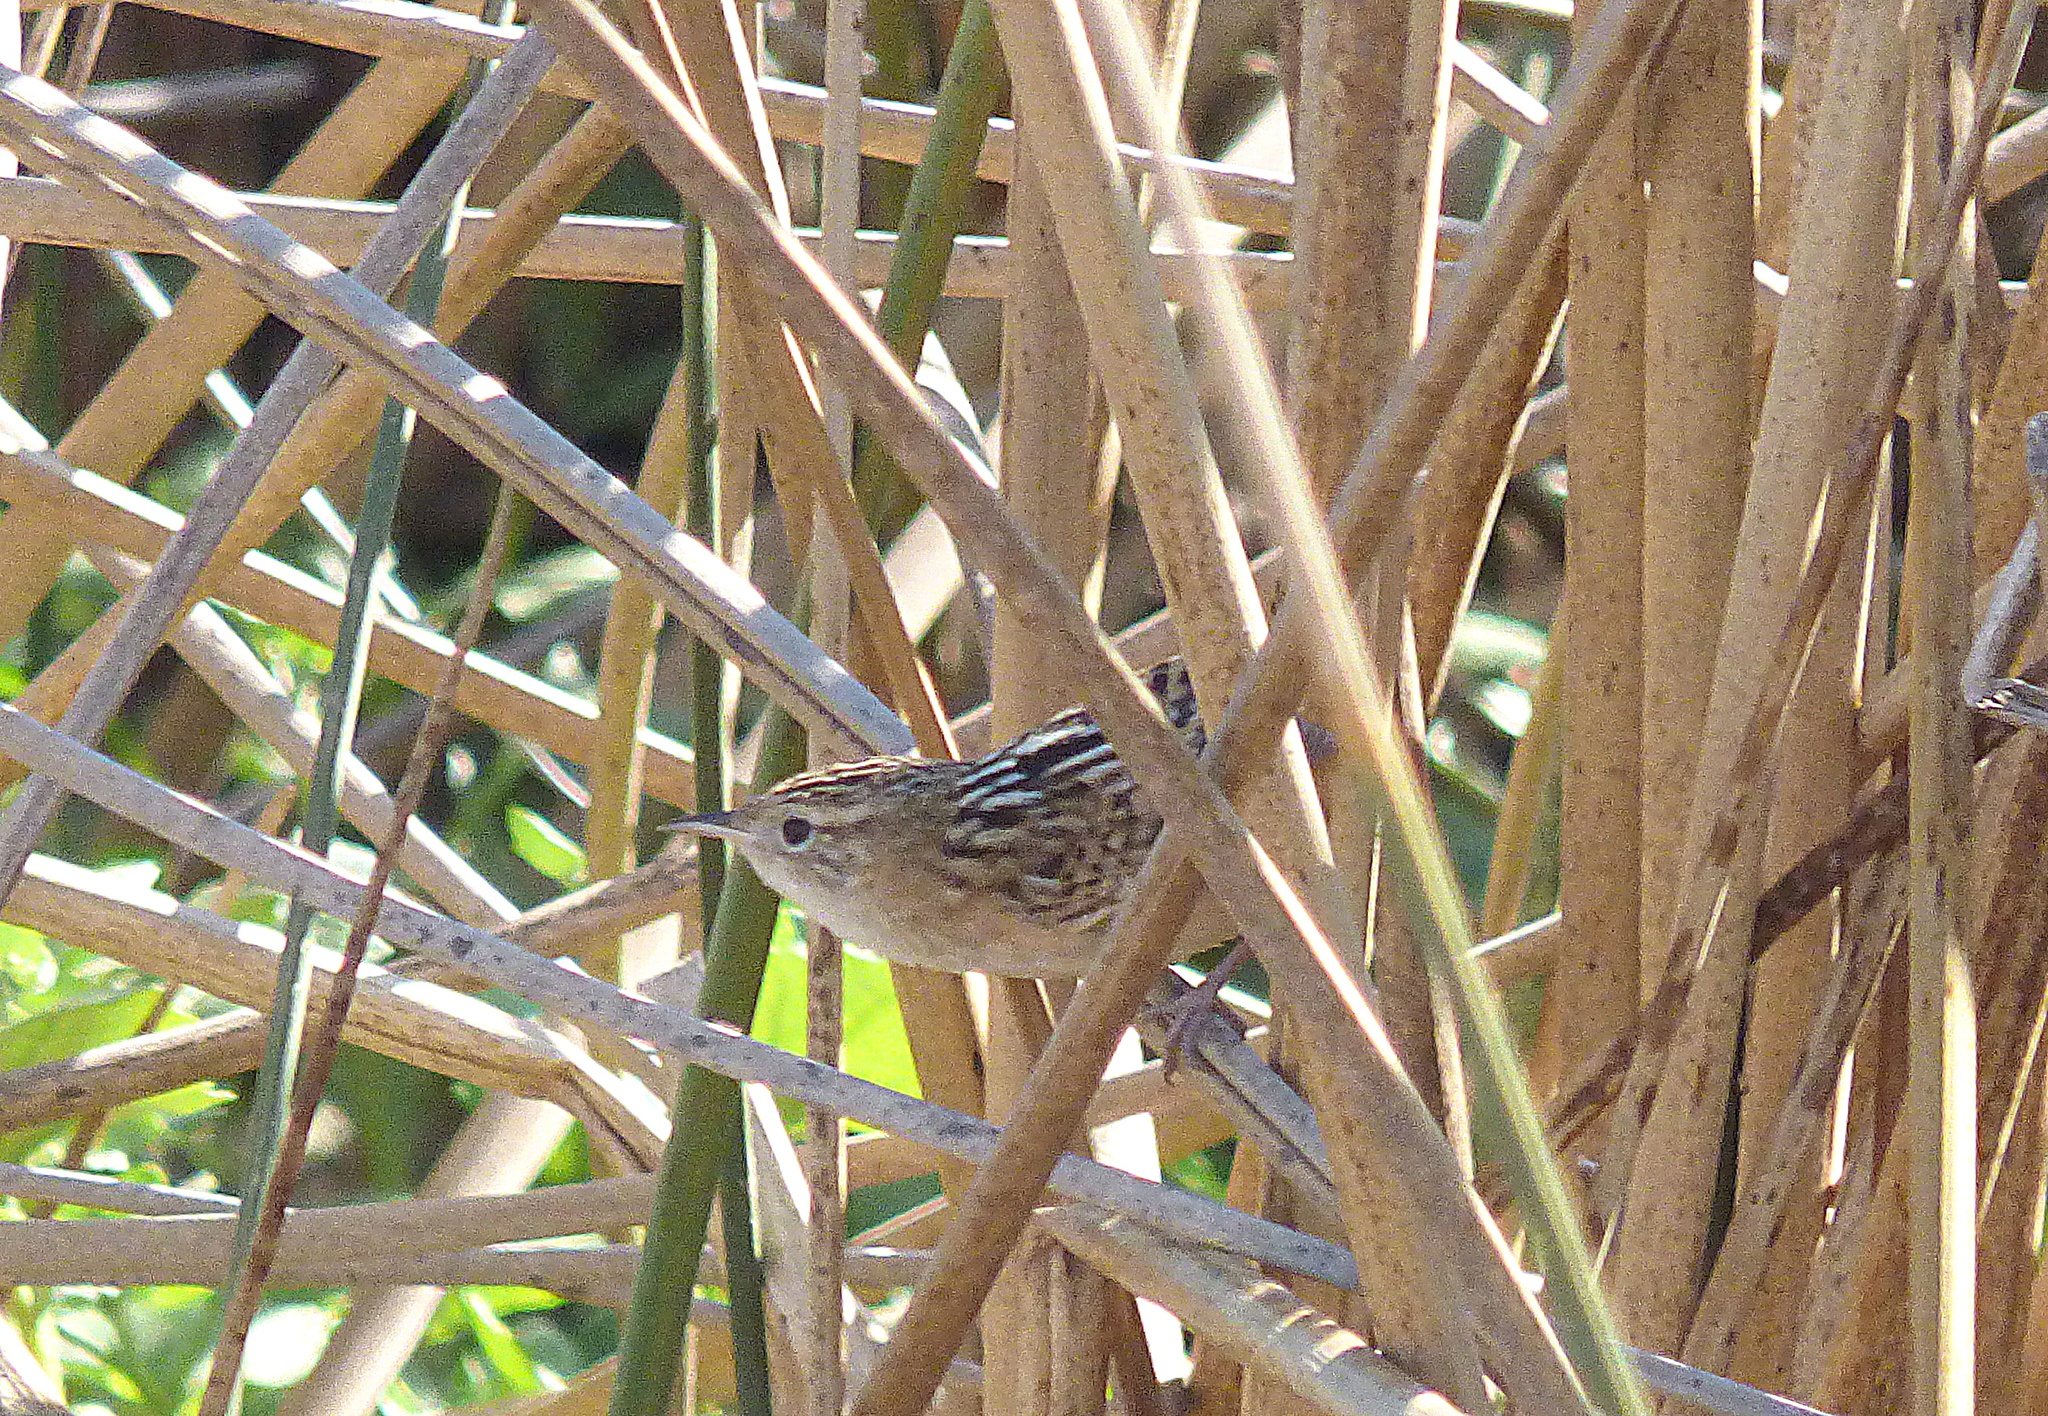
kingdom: Animalia
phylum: Chordata
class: Aves
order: Passeriformes
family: Troglodytidae
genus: Cistothorus
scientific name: Cistothorus platensis
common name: Sedge wren
